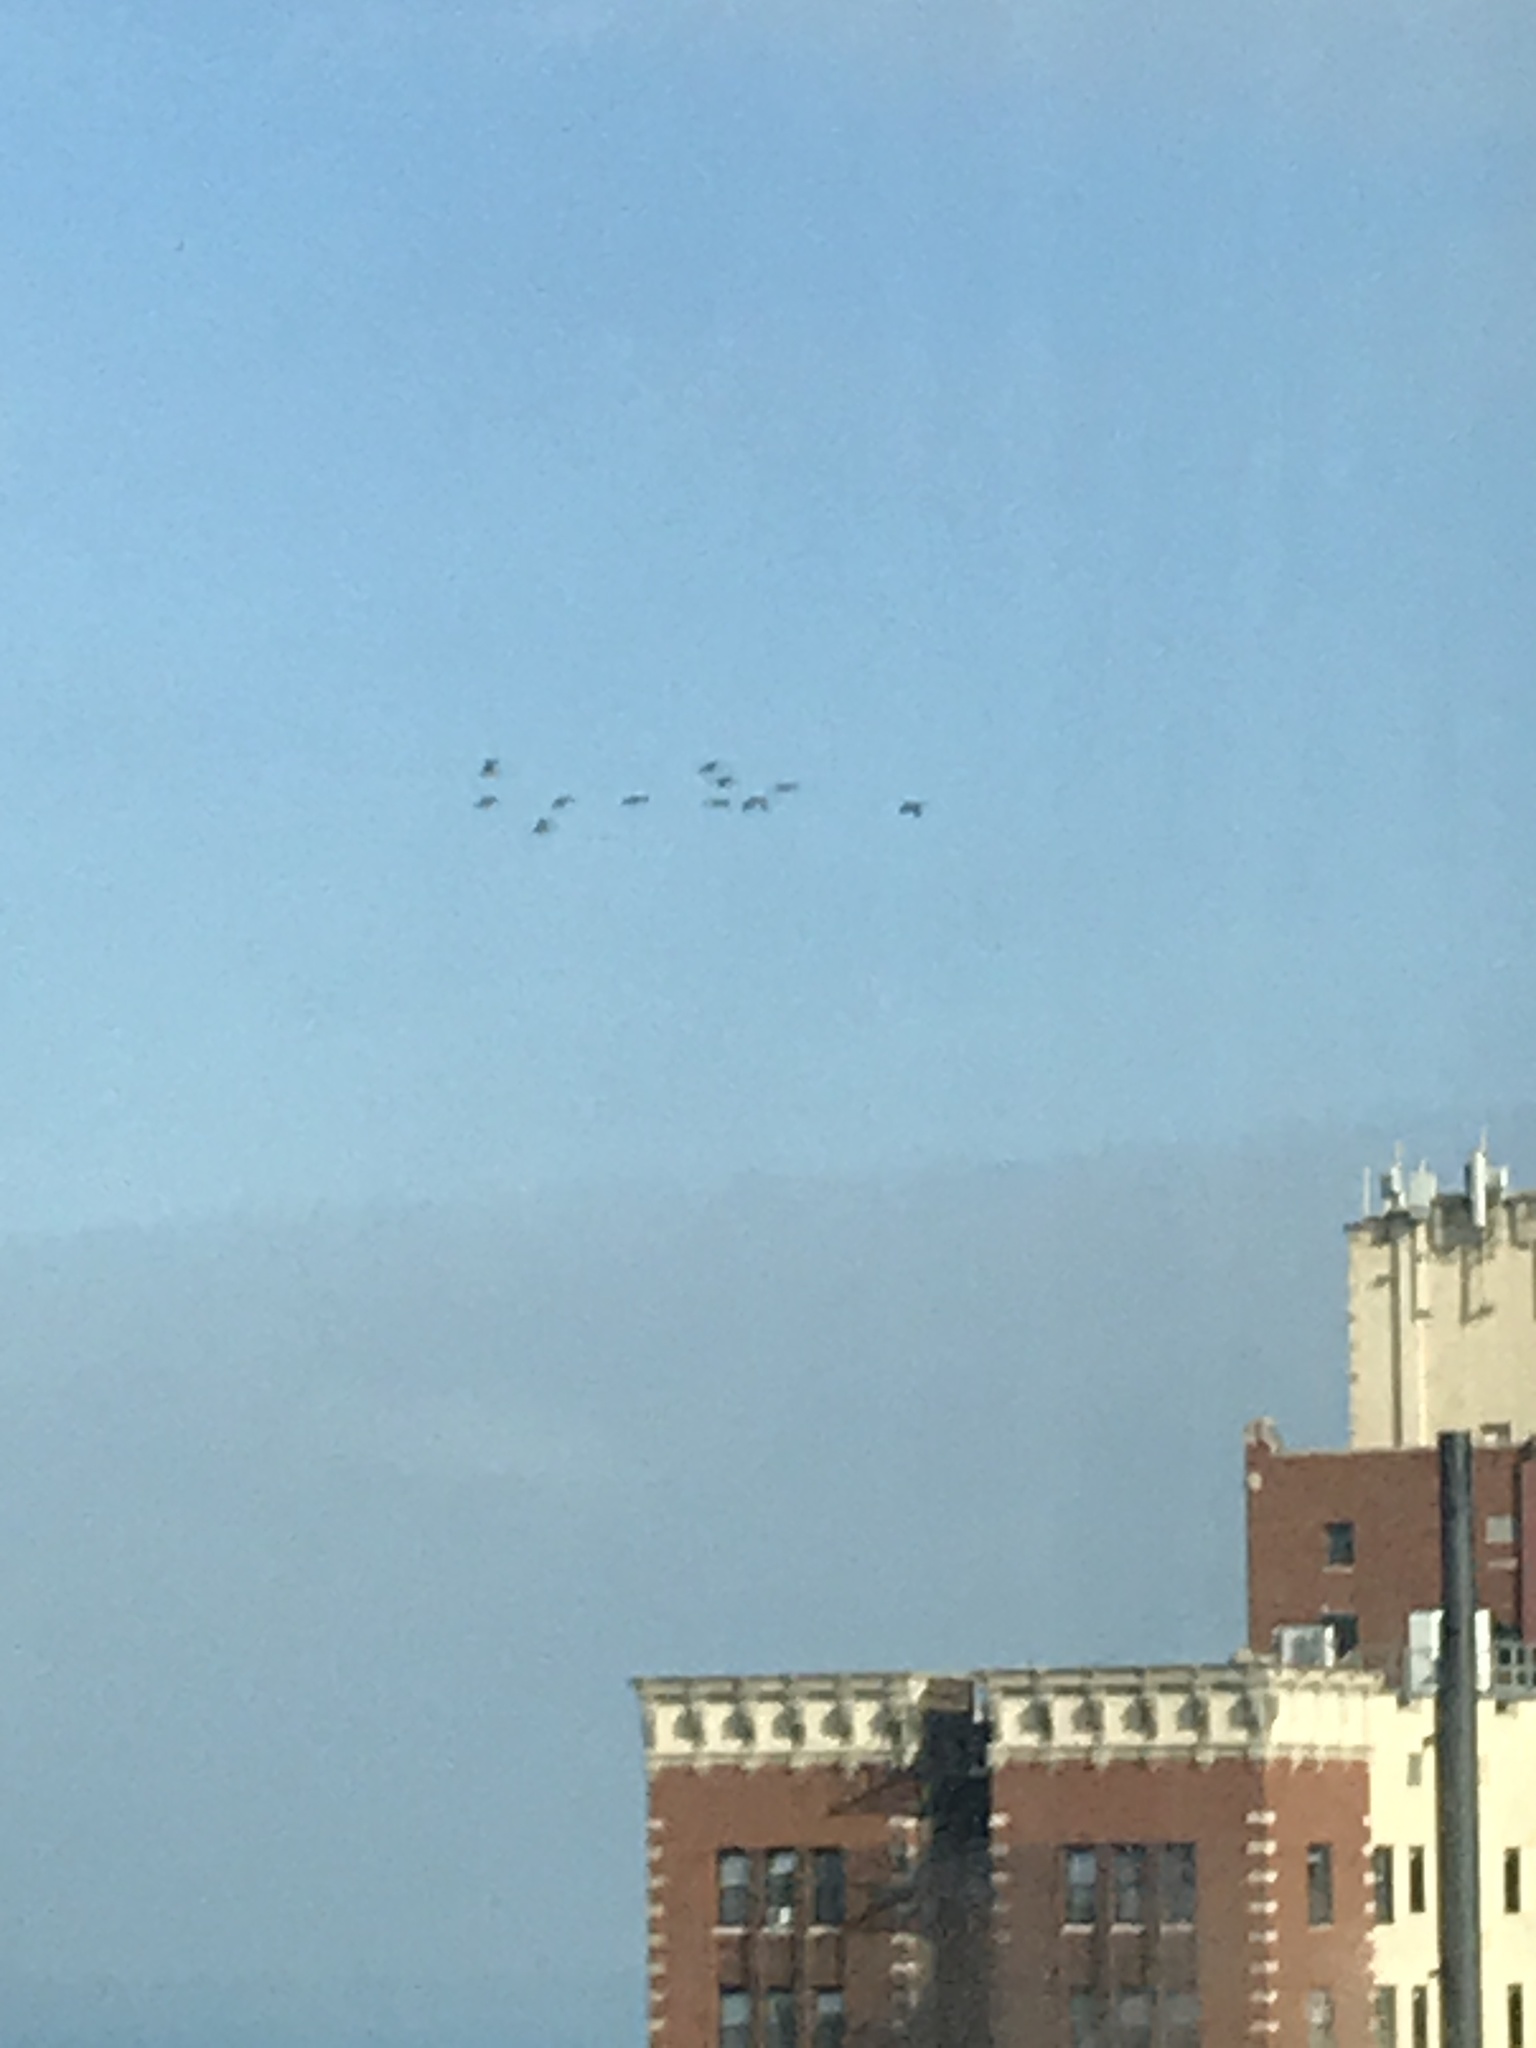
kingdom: Animalia
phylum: Chordata
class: Aves
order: Anseriformes
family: Anatidae
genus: Branta
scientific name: Branta canadensis
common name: Canada goose
